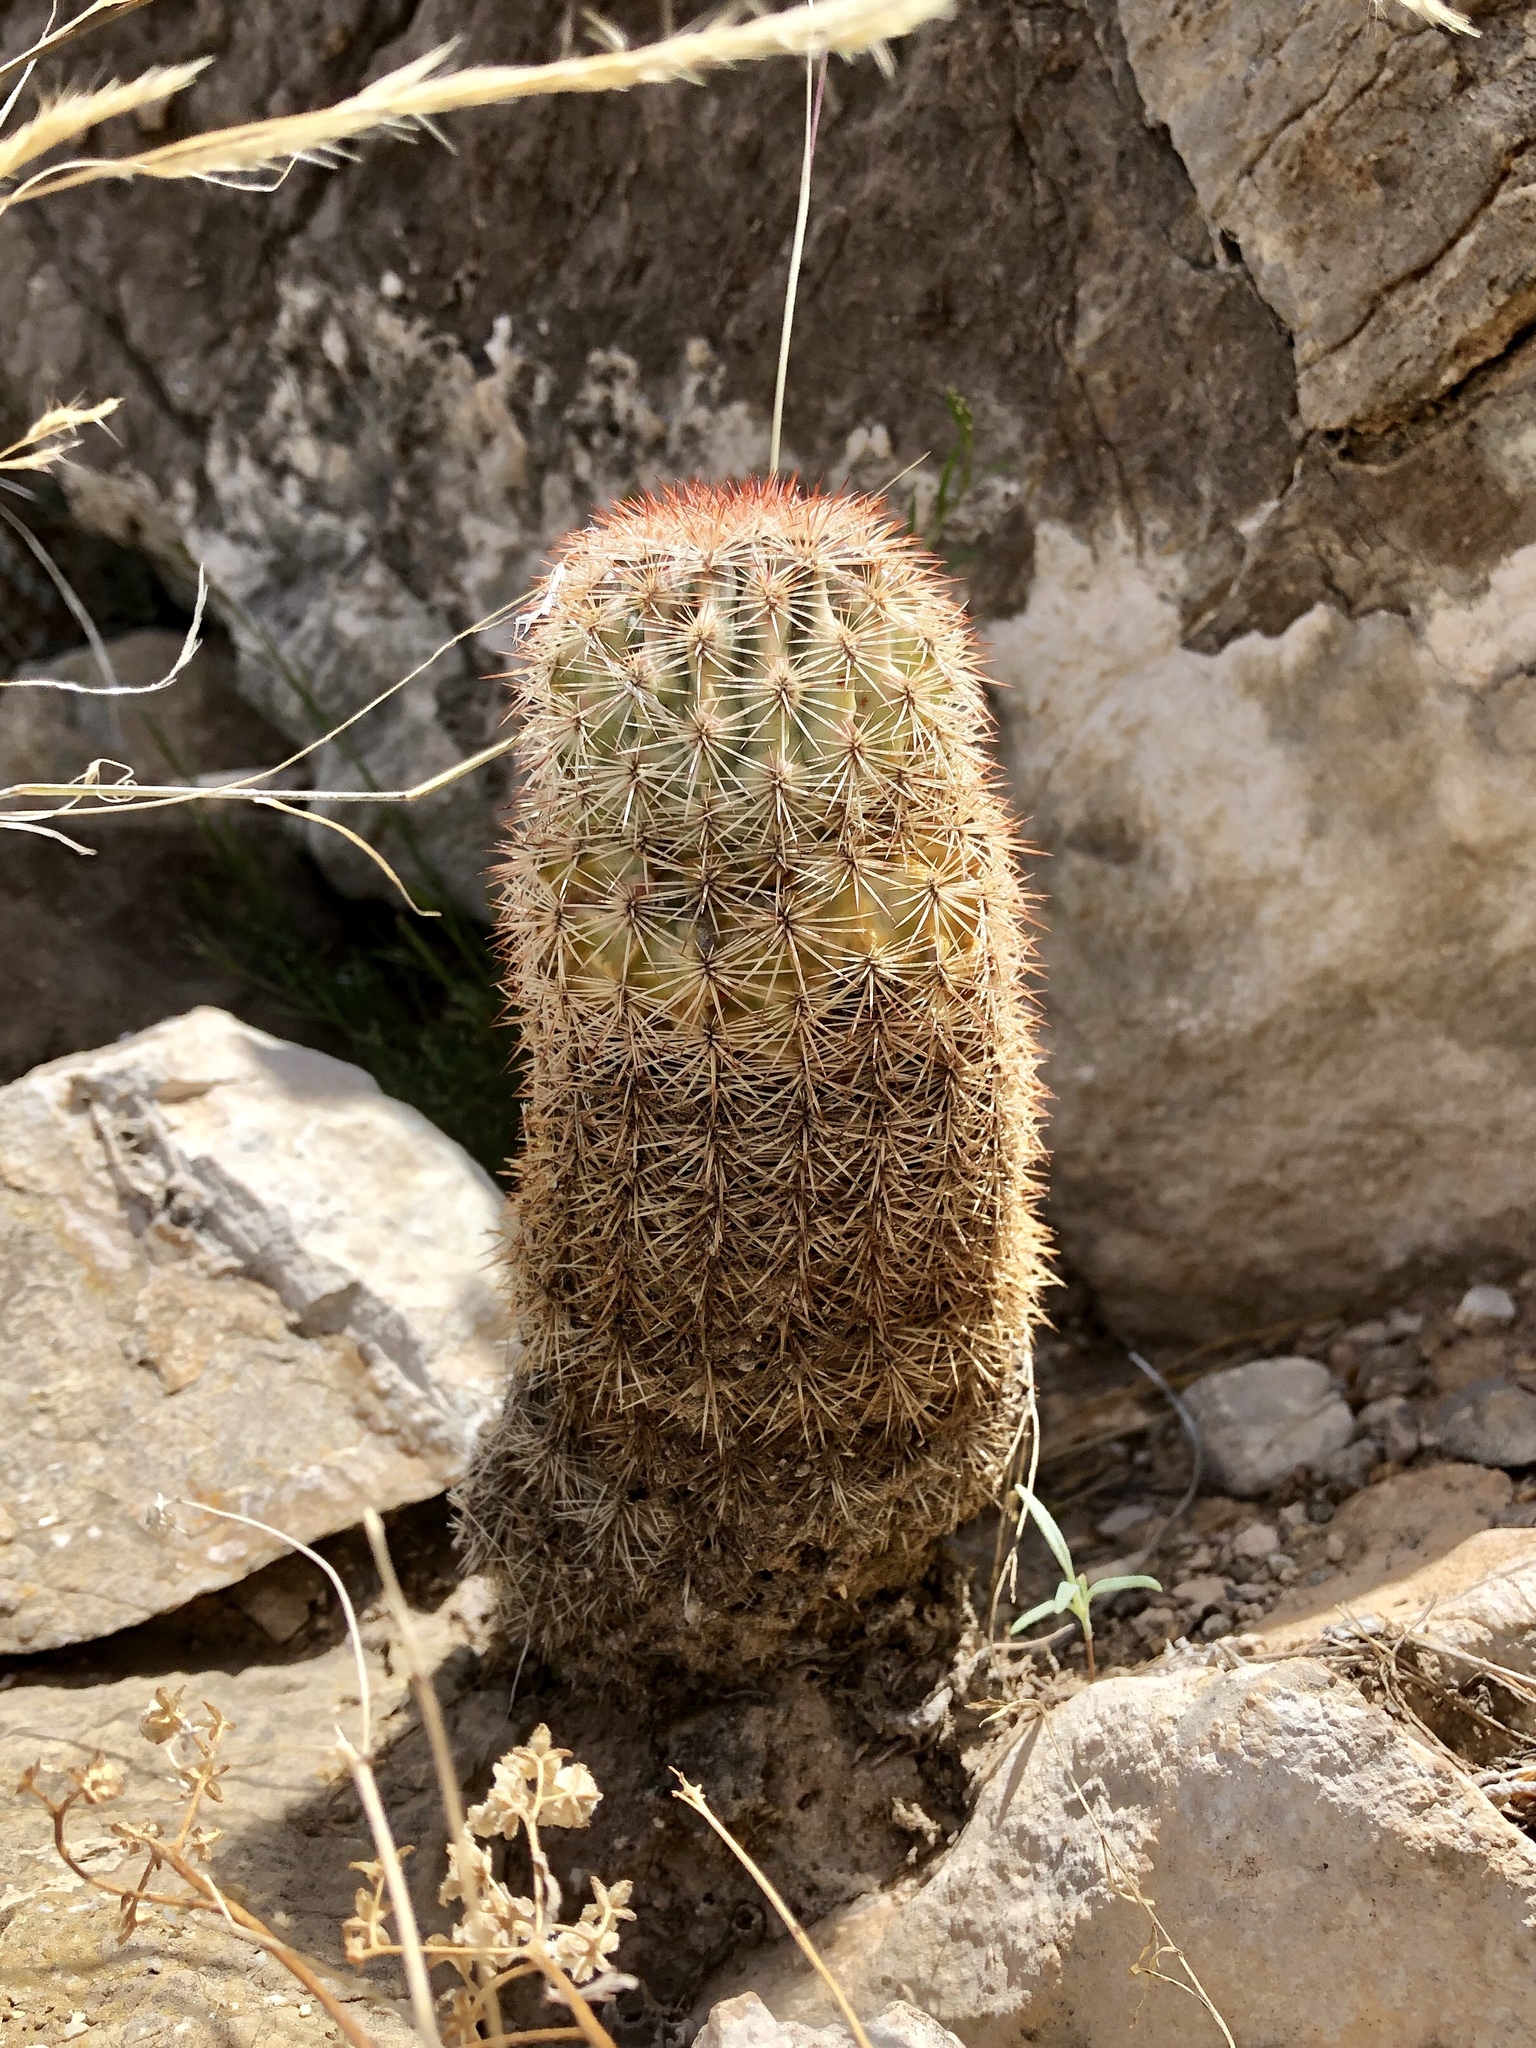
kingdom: Plantae
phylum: Tracheophyta
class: Magnoliopsida
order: Caryophyllales
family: Cactaceae
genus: Echinocereus
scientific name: Echinocereus dasyacanthus
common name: Spiny hedgehog cactus
